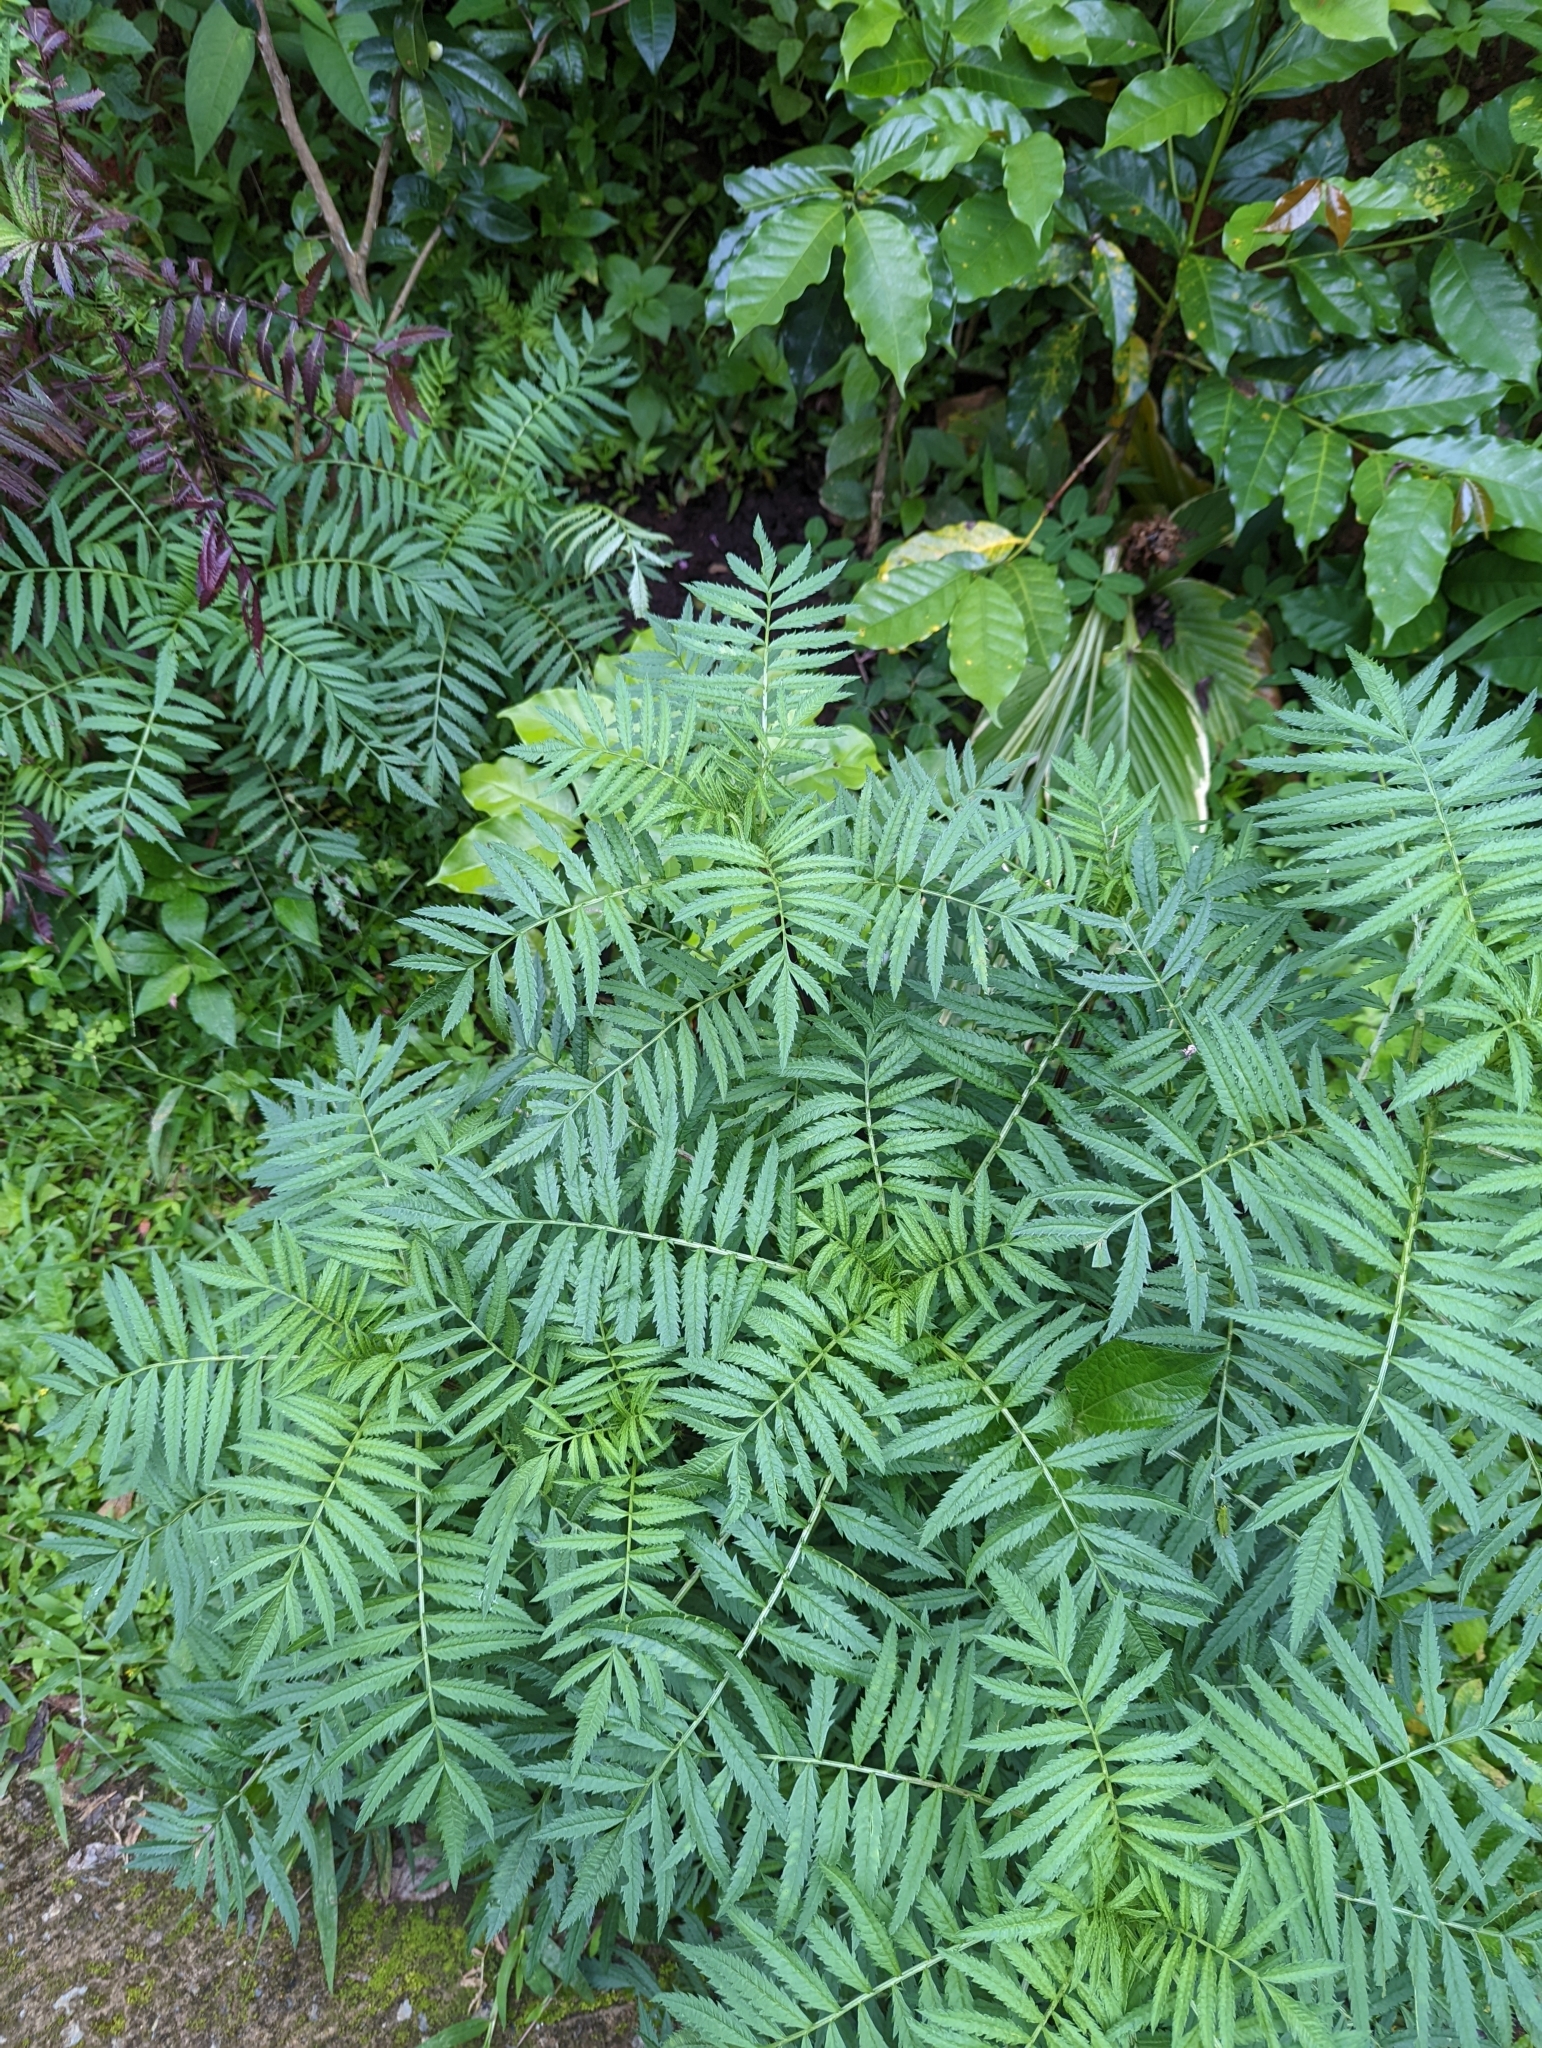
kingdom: Plantae
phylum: Tracheophyta
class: Magnoliopsida
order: Asterales
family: Asteraceae
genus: Tagetes
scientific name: Tagetes erecta
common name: African marigold
